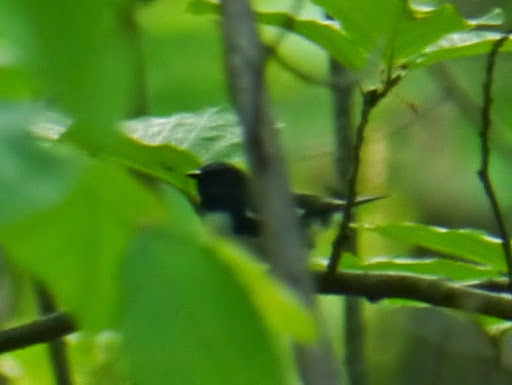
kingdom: Animalia
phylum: Chordata
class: Aves
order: Passeriformes
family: Parulidae
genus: Setophaga
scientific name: Setophaga caerulescens
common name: Black-throated blue warbler
